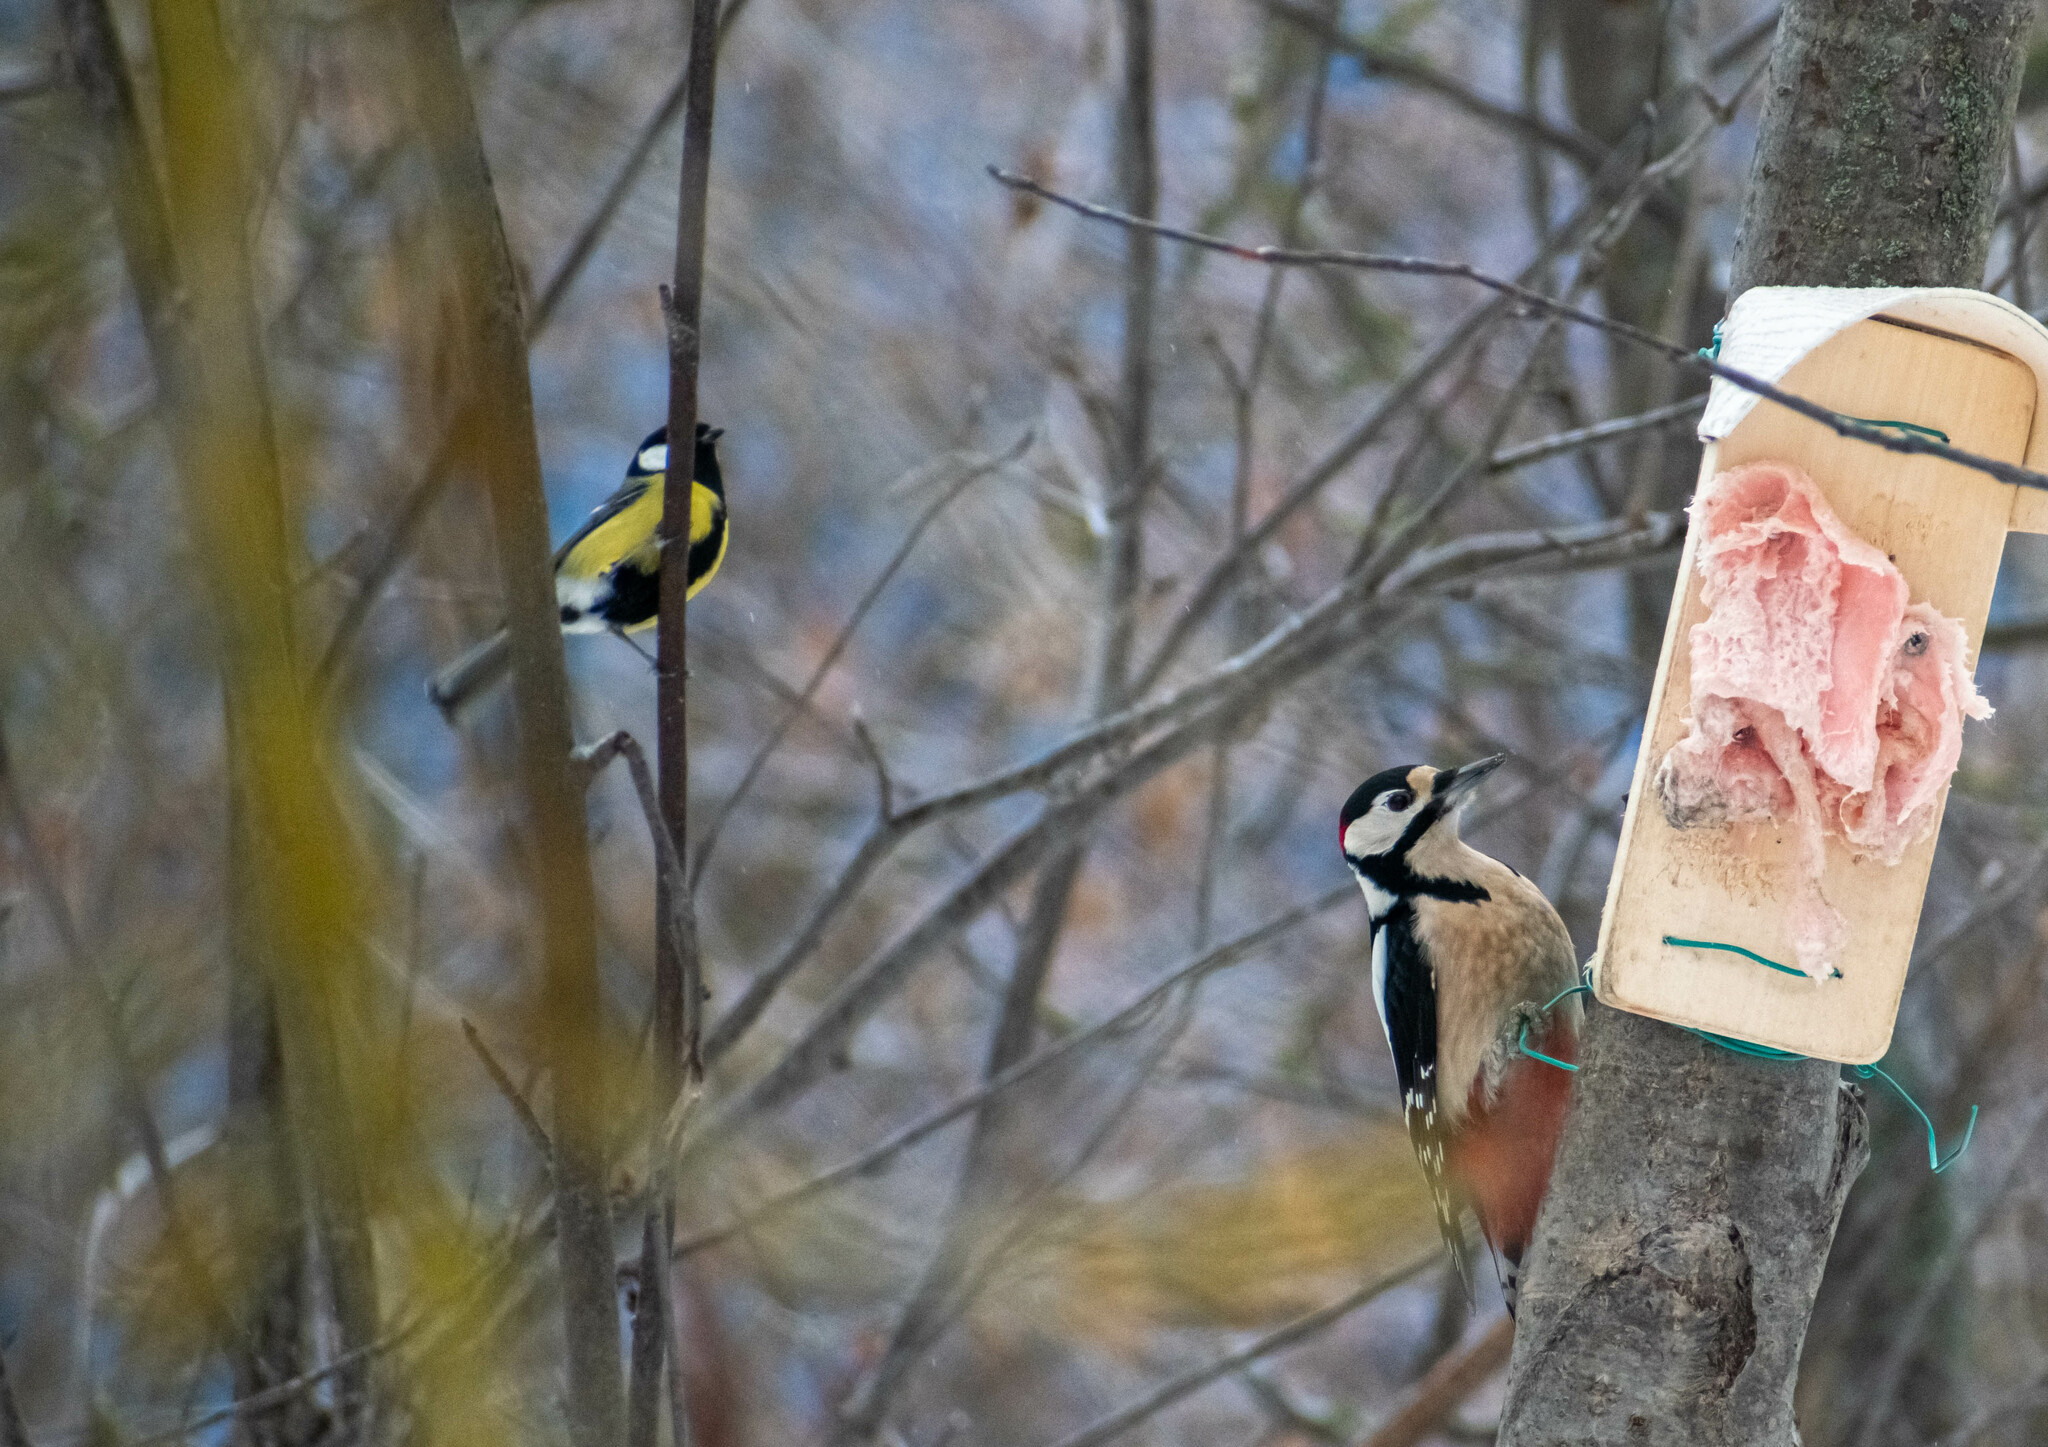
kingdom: Animalia
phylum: Chordata
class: Aves
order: Piciformes
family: Picidae
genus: Dendrocopos
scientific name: Dendrocopos major
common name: Great spotted woodpecker
